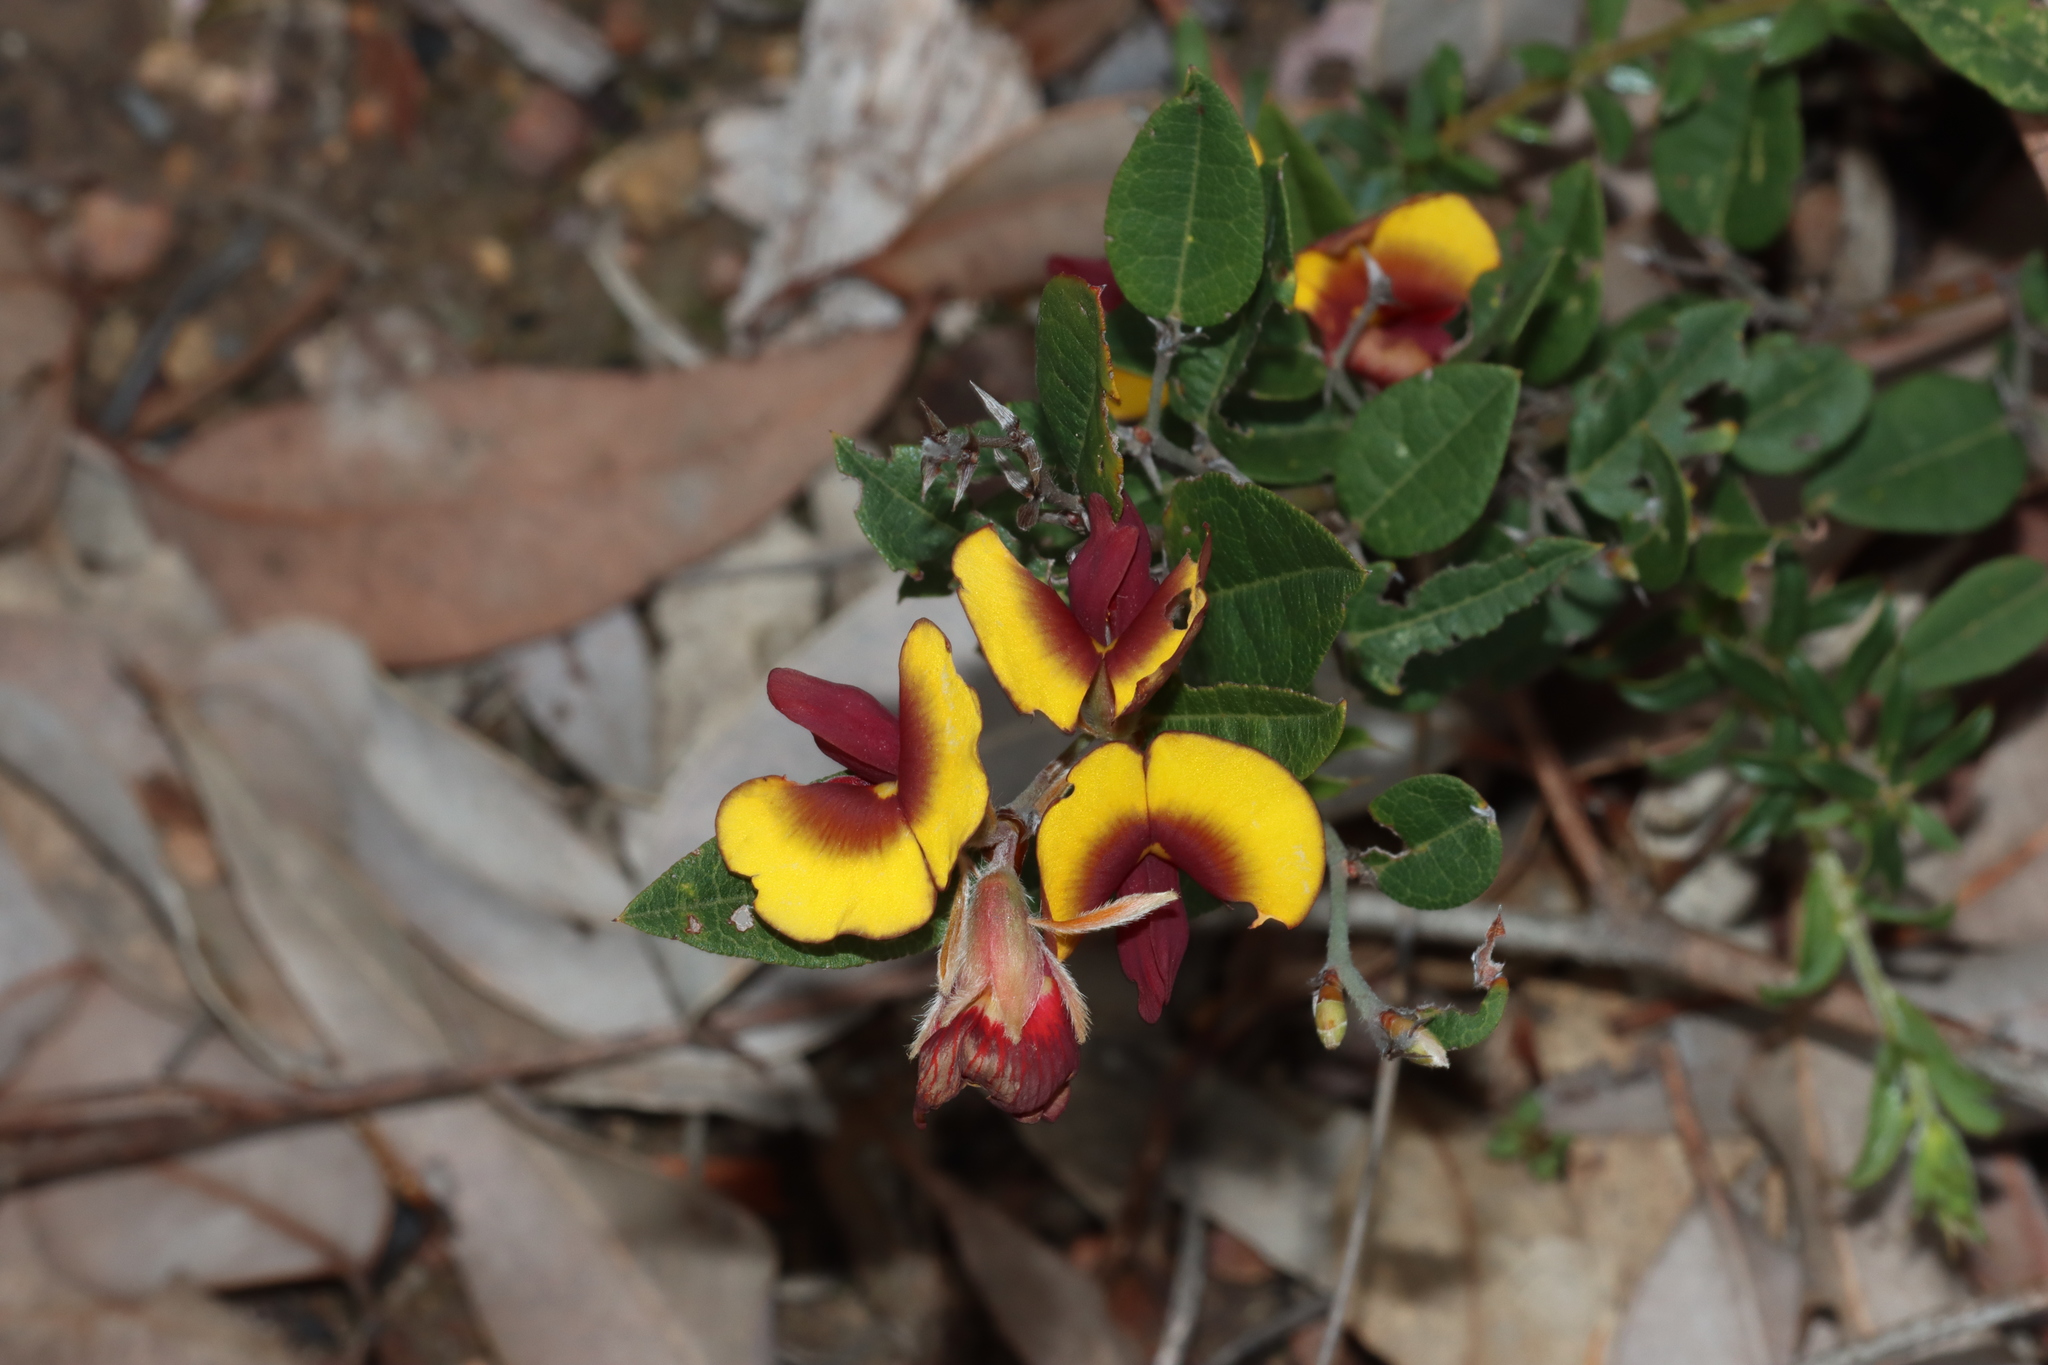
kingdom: Plantae
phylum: Tracheophyta
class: Magnoliopsida
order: Fabales
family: Fabaceae
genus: Bossiaea
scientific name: Bossiaea ornata
